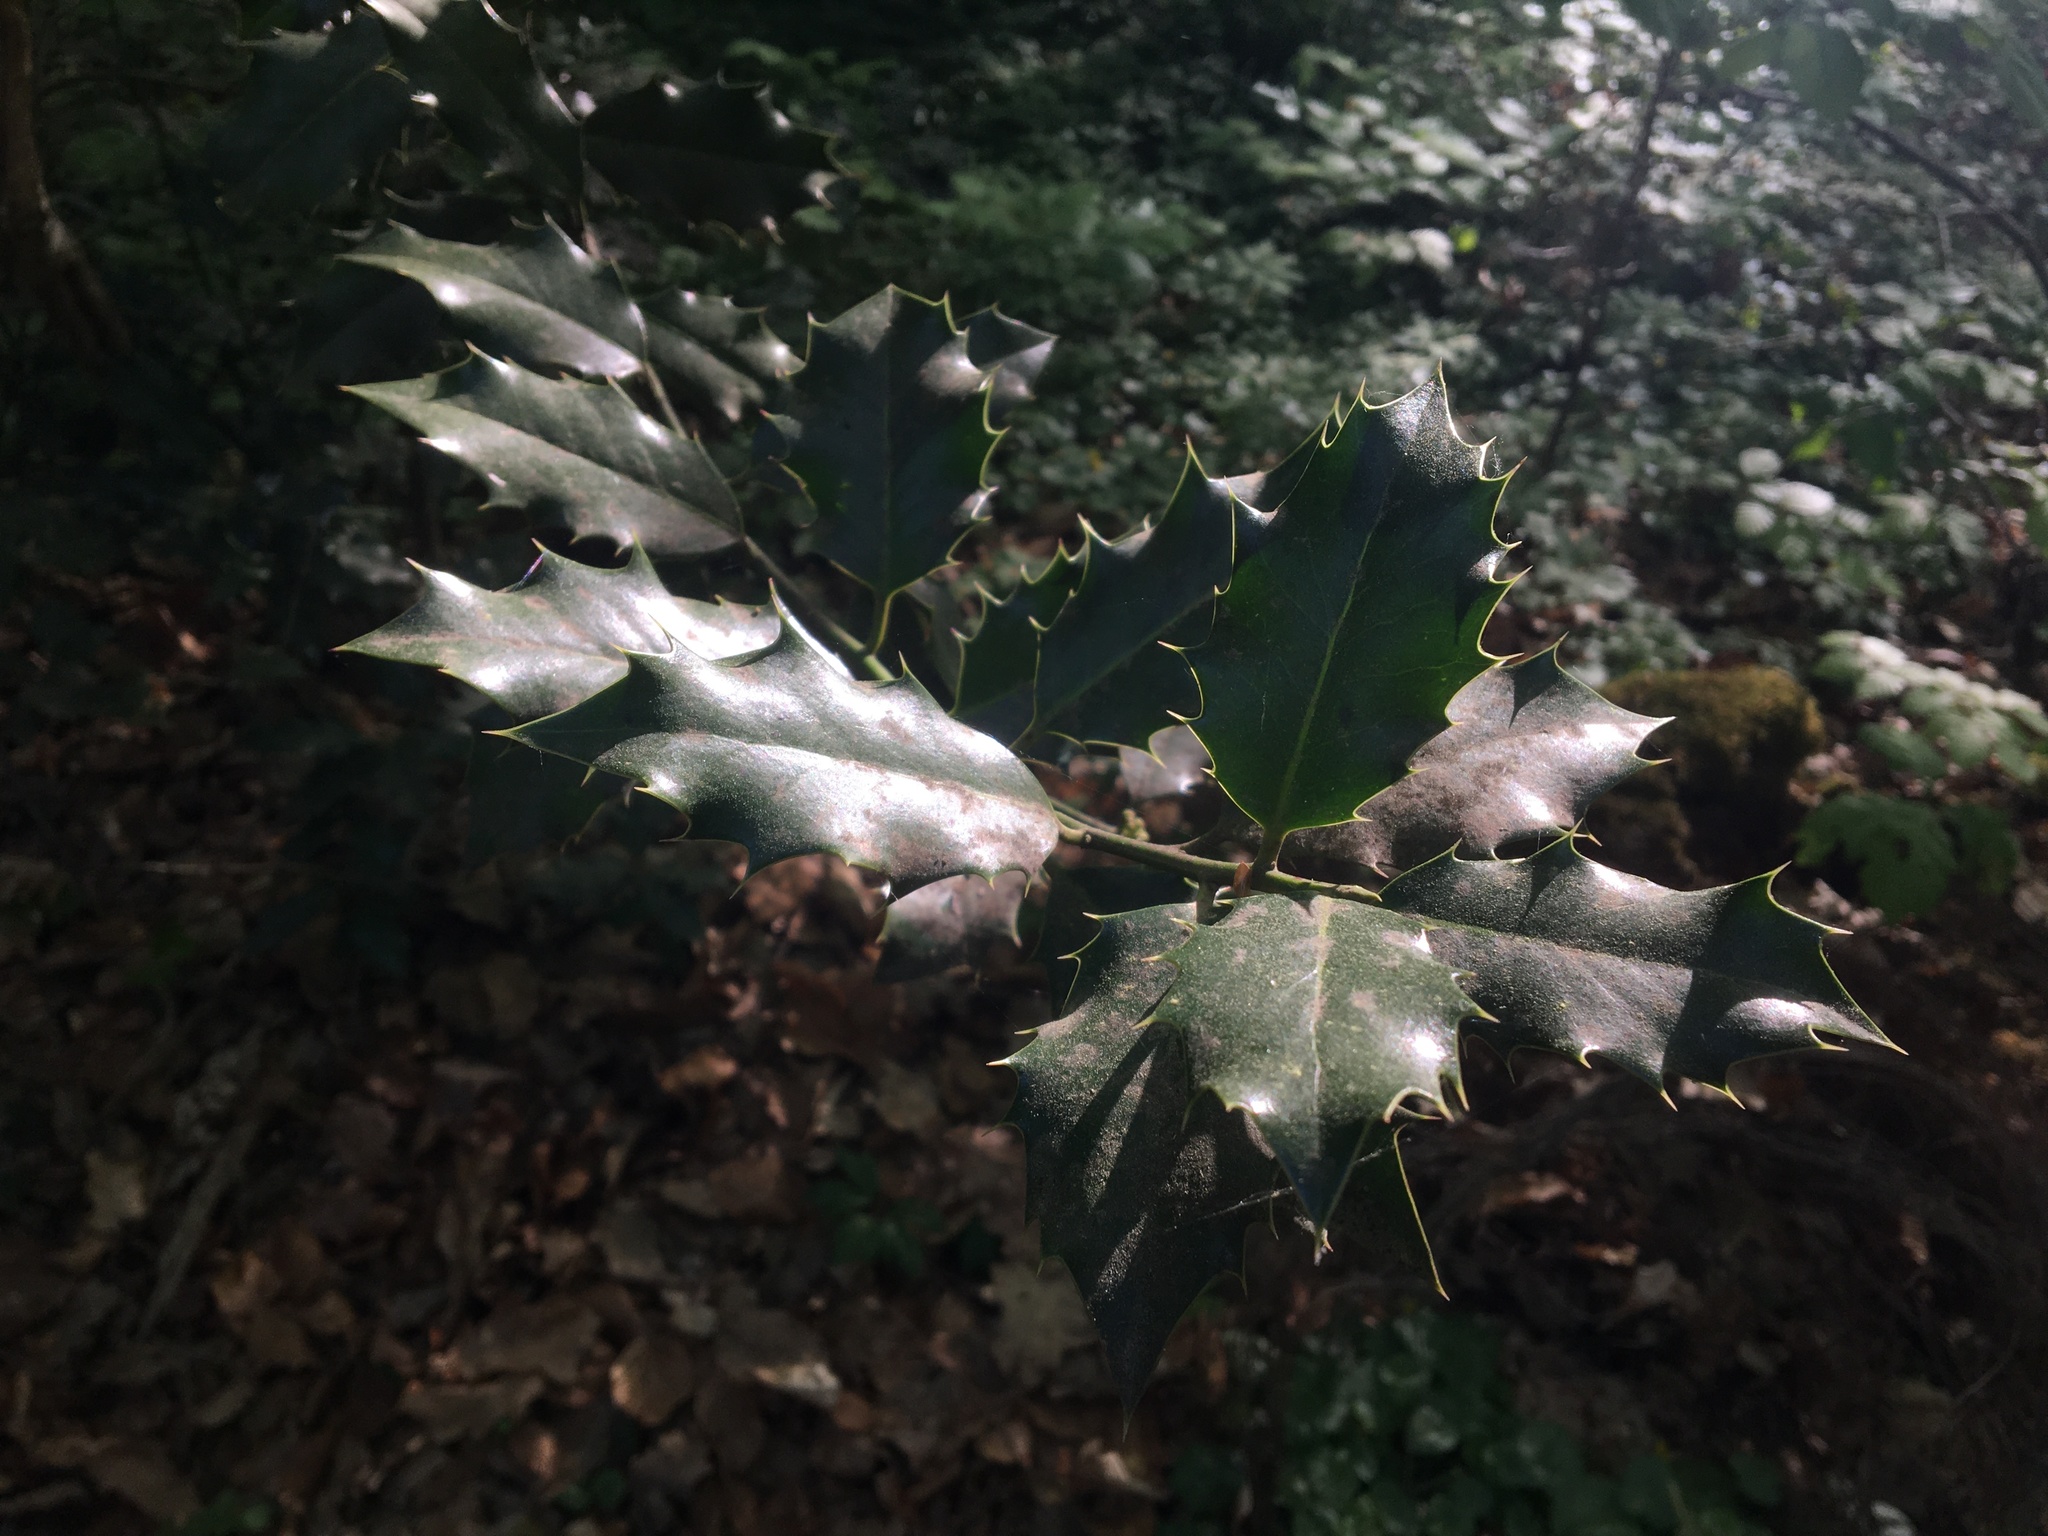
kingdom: Plantae
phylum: Tracheophyta
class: Magnoliopsida
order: Aquifoliales
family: Aquifoliaceae
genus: Ilex
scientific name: Ilex aquifolium
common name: English holly
